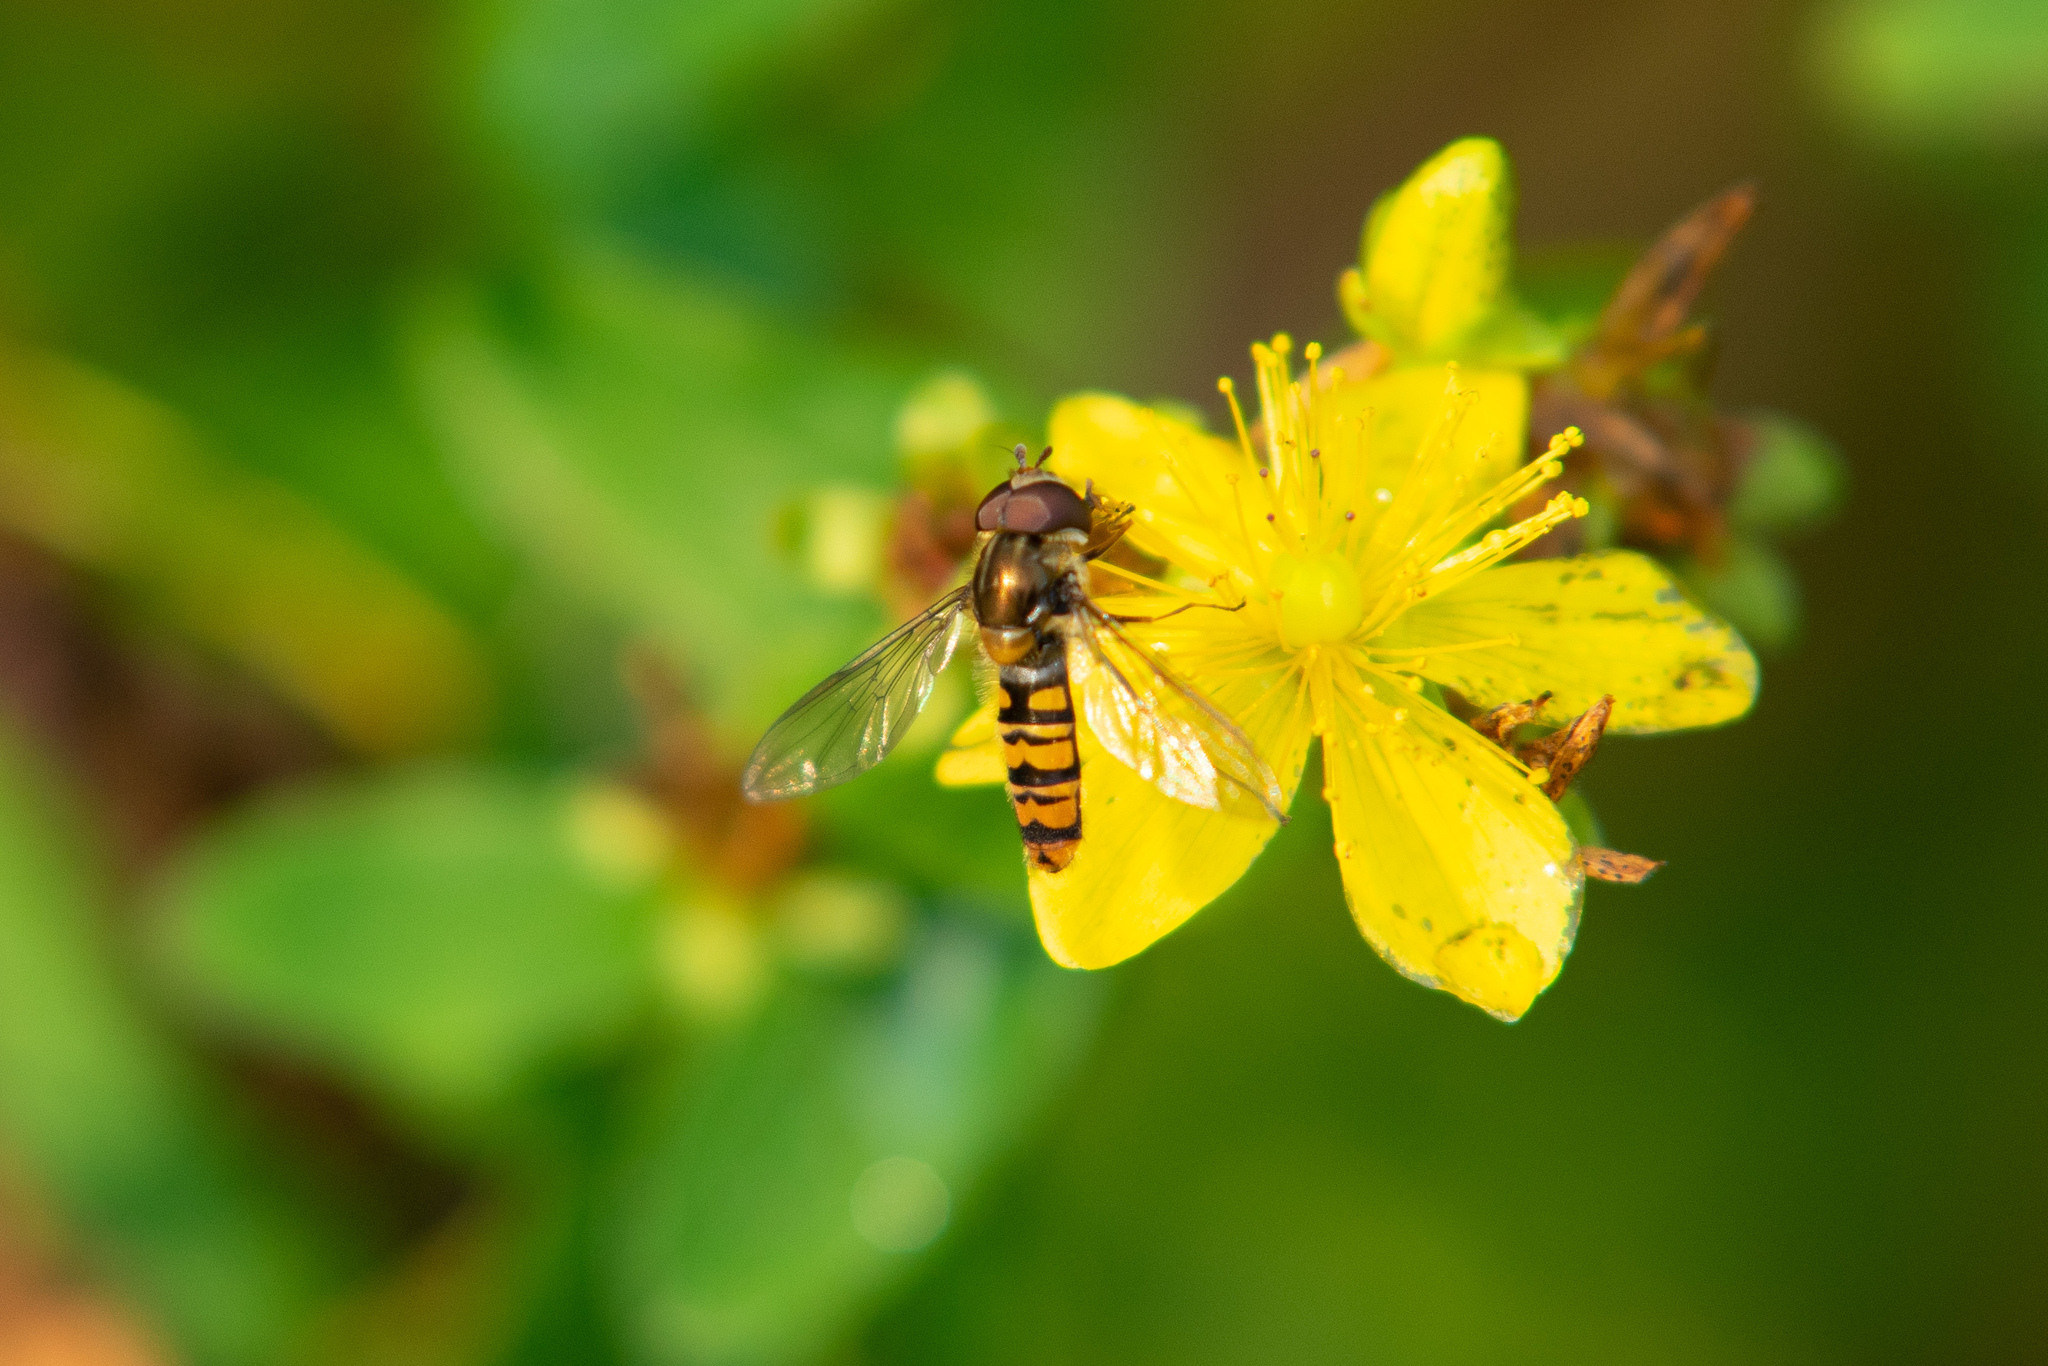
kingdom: Animalia
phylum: Arthropoda
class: Insecta
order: Diptera
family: Syrphidae
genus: Episyrphus
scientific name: Episyrphus balteatus
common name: Marmalade hoverfly
